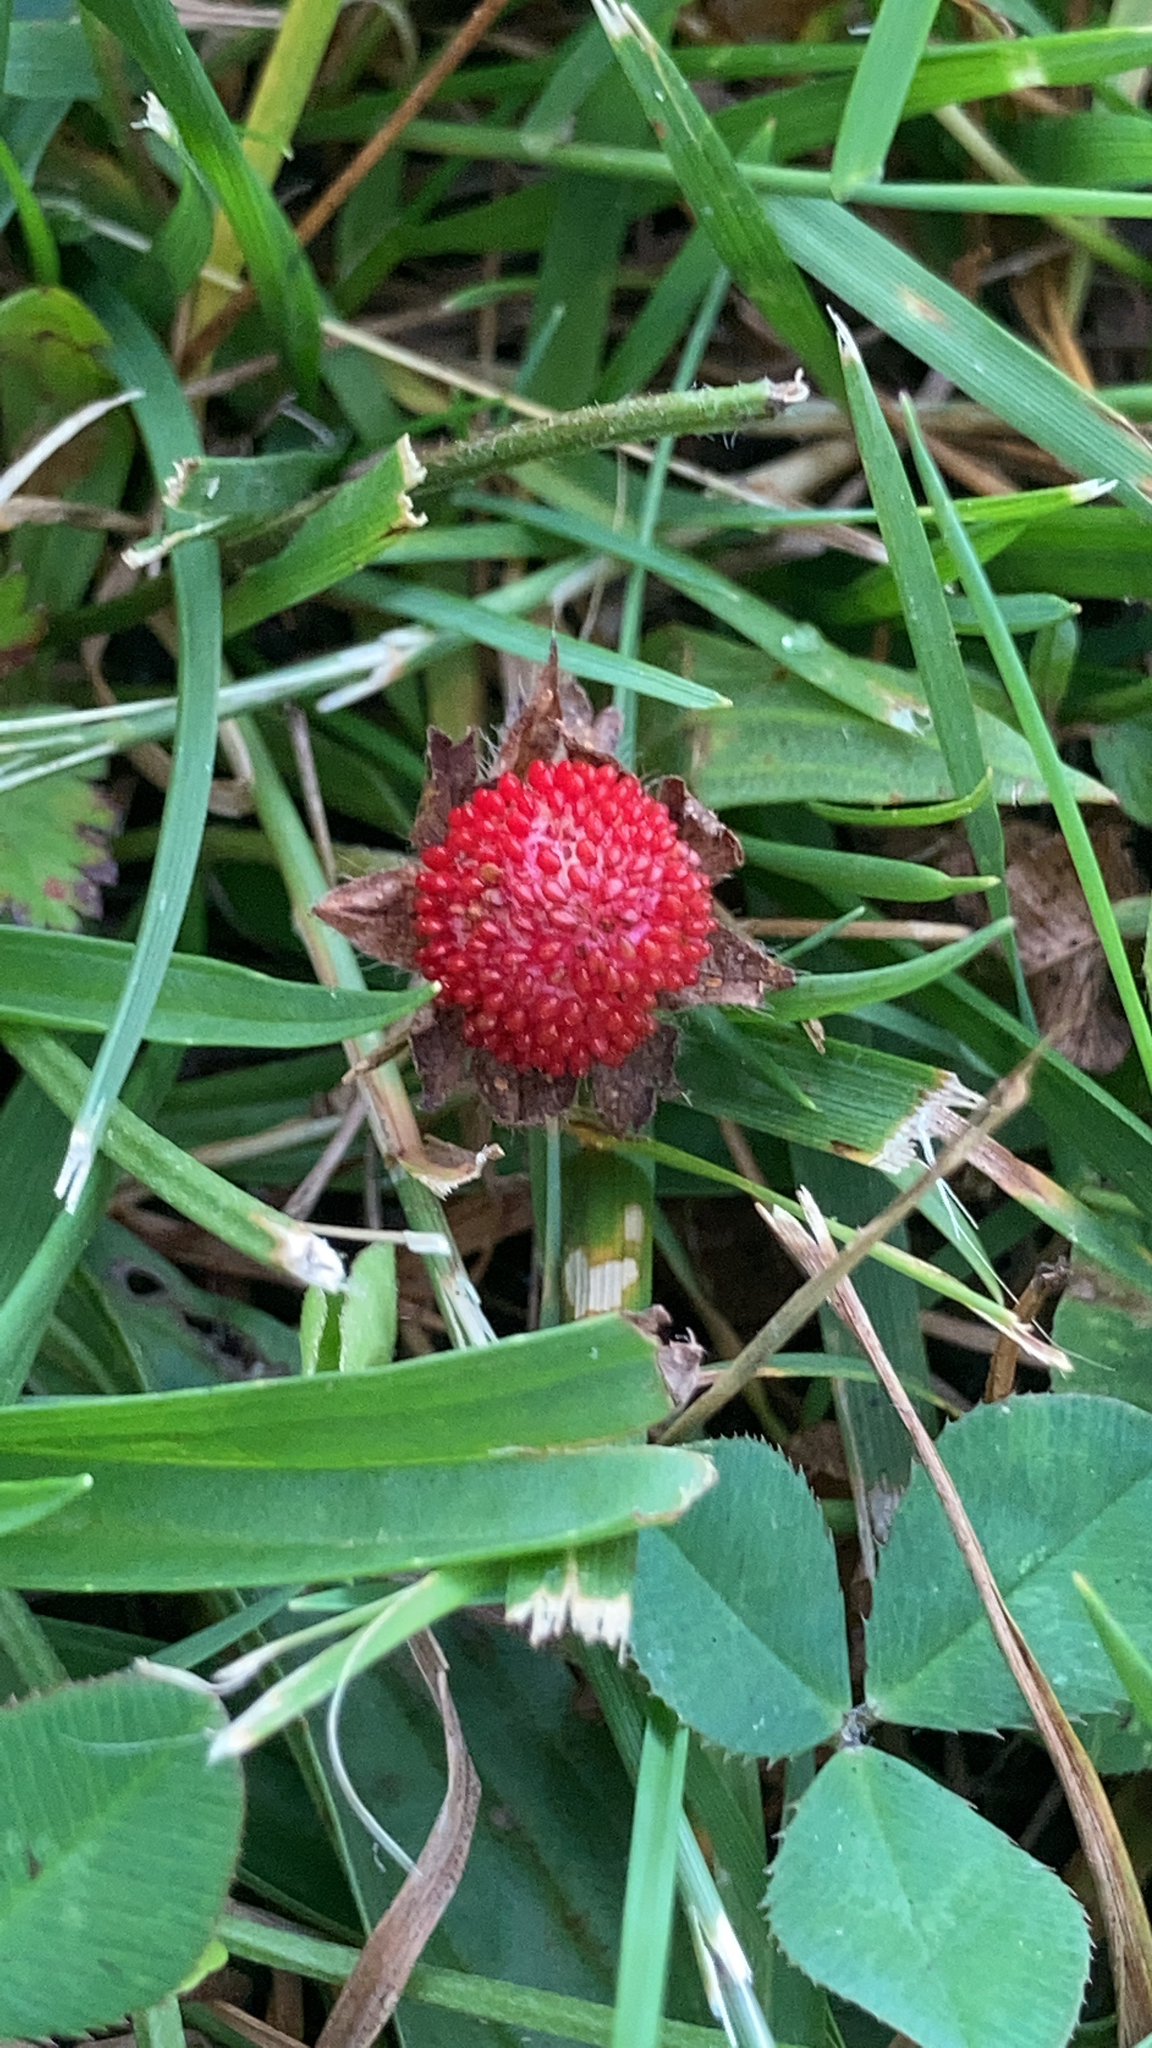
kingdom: Plantae
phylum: Tracheophyta
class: Magnoliopsida
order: Rosales
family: Rosaceae
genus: Potentilla
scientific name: Potentilla indica
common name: Yellow-flowered strawberry
